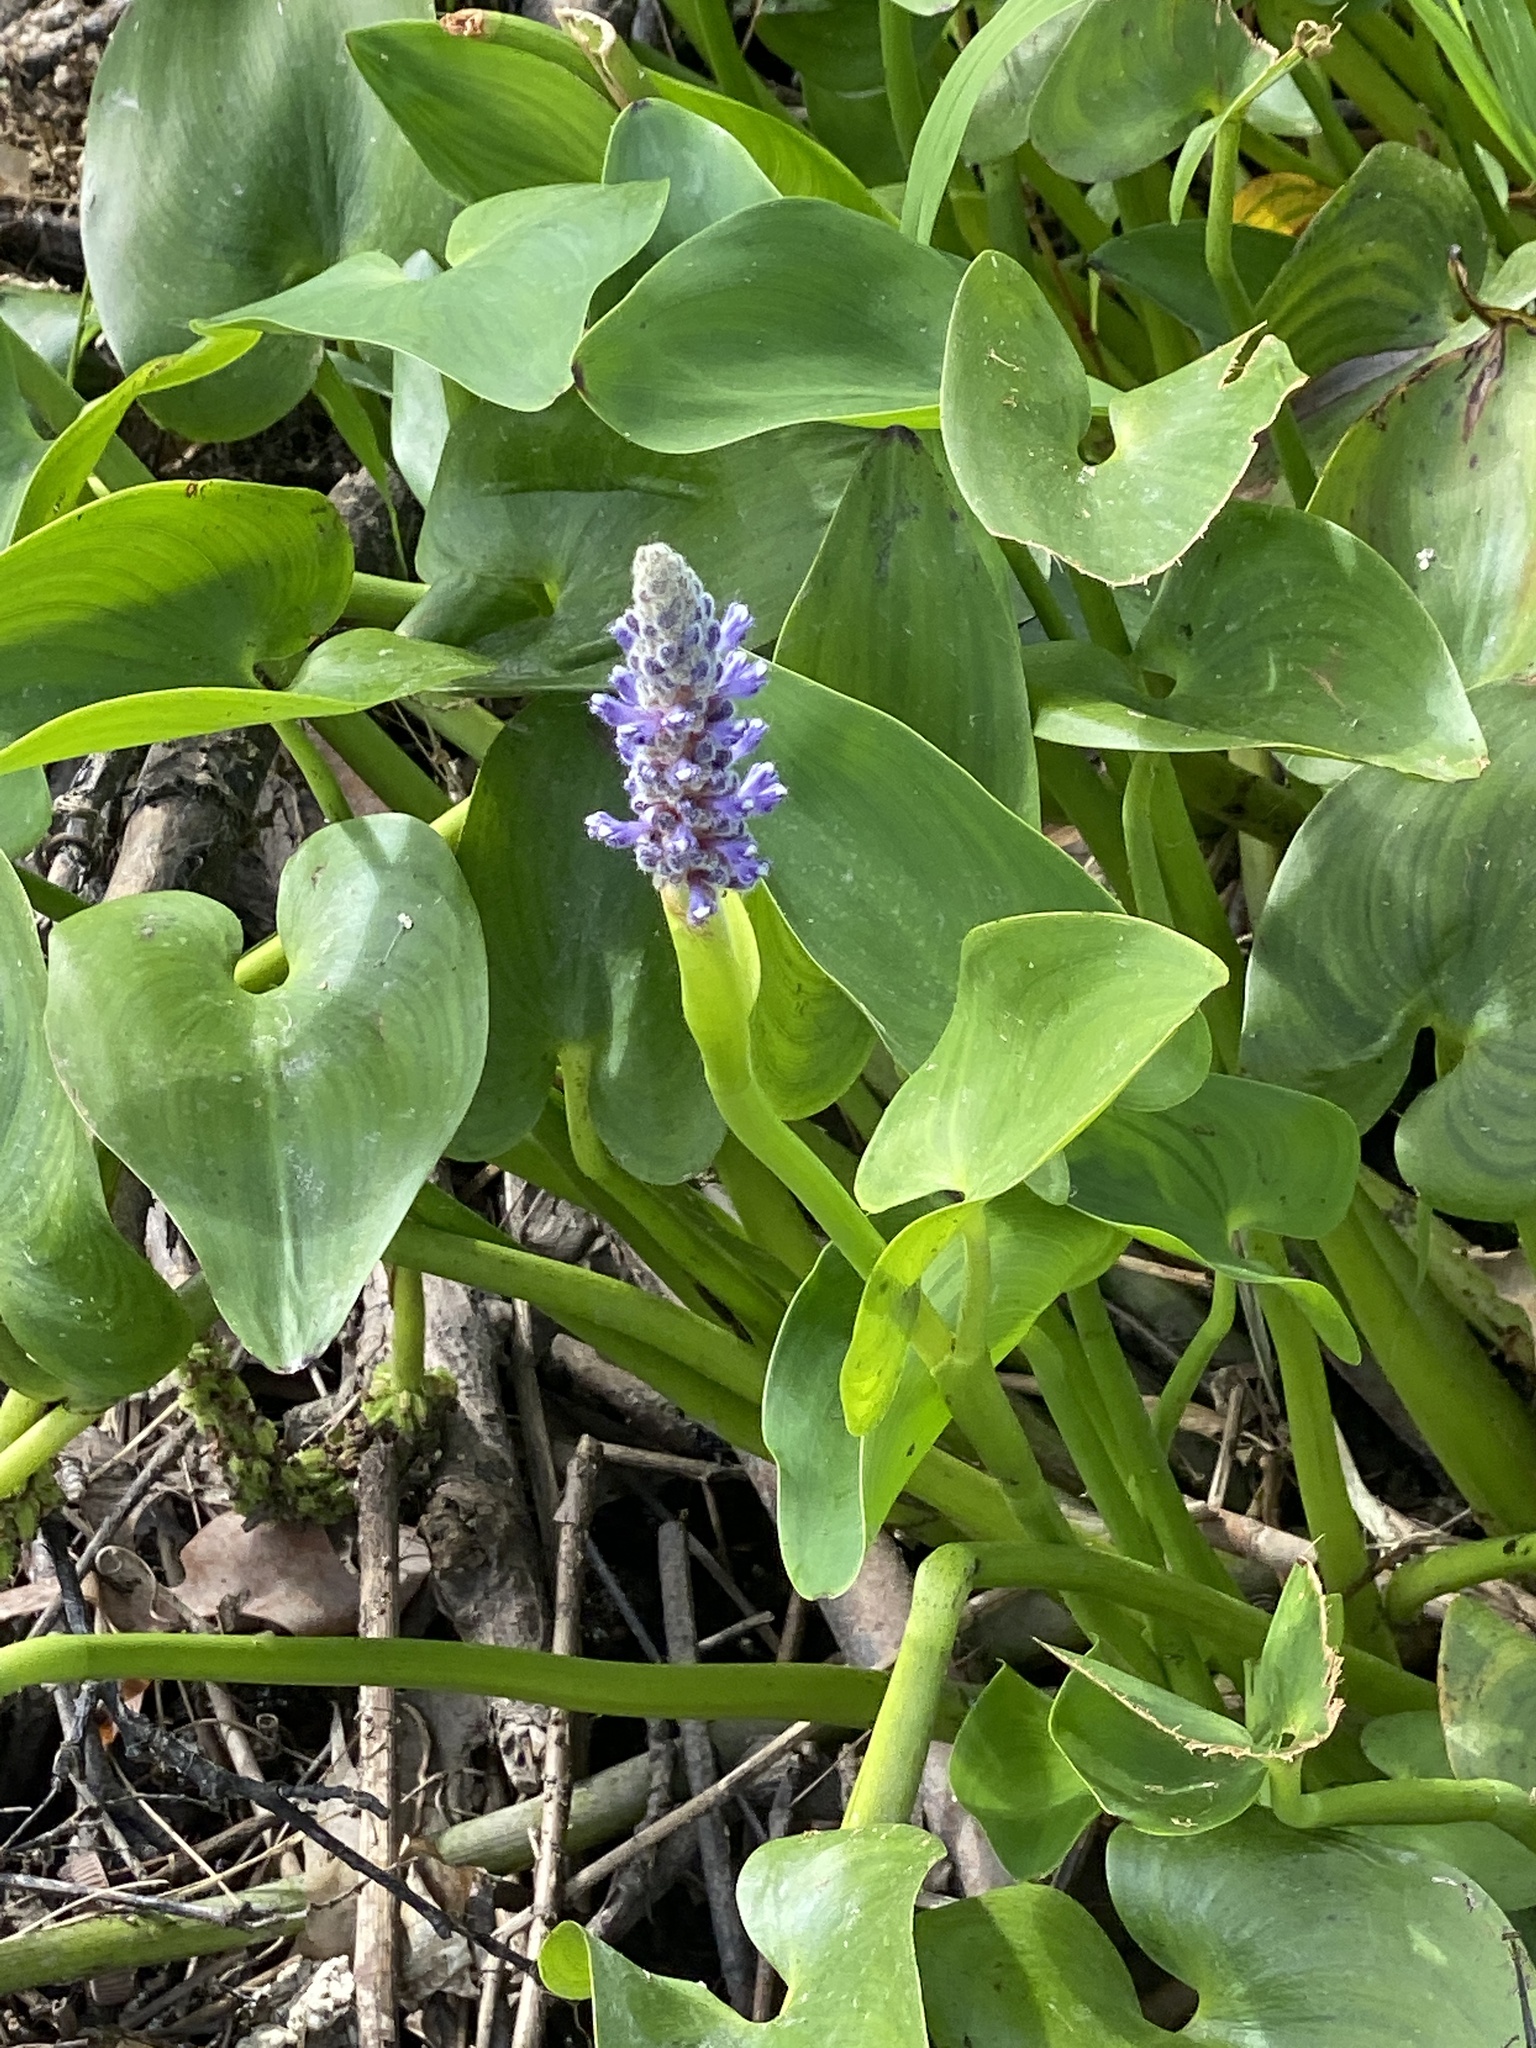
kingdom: Plantae
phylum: Tracheophyta
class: Liliopsida
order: Commelinales
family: Pontederiaceae
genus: Pontederia
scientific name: Pontederia cordata
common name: Pickerelweed
